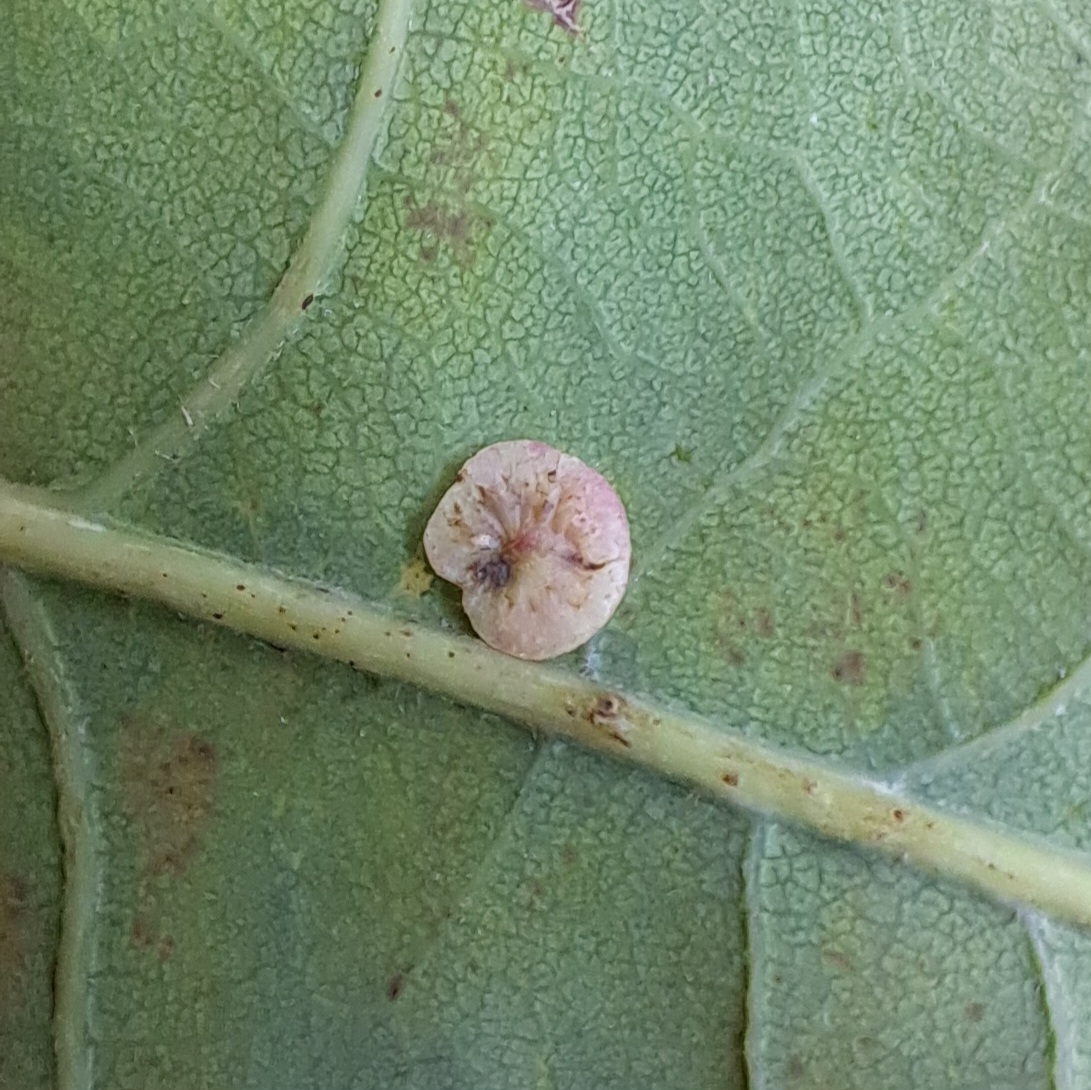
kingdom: Animalia
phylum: Arthropoda
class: Insecta
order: Hymenoptera
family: Cynipidae
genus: Neuroterus
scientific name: Neuroterus albipes
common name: Smooth spangle gall
